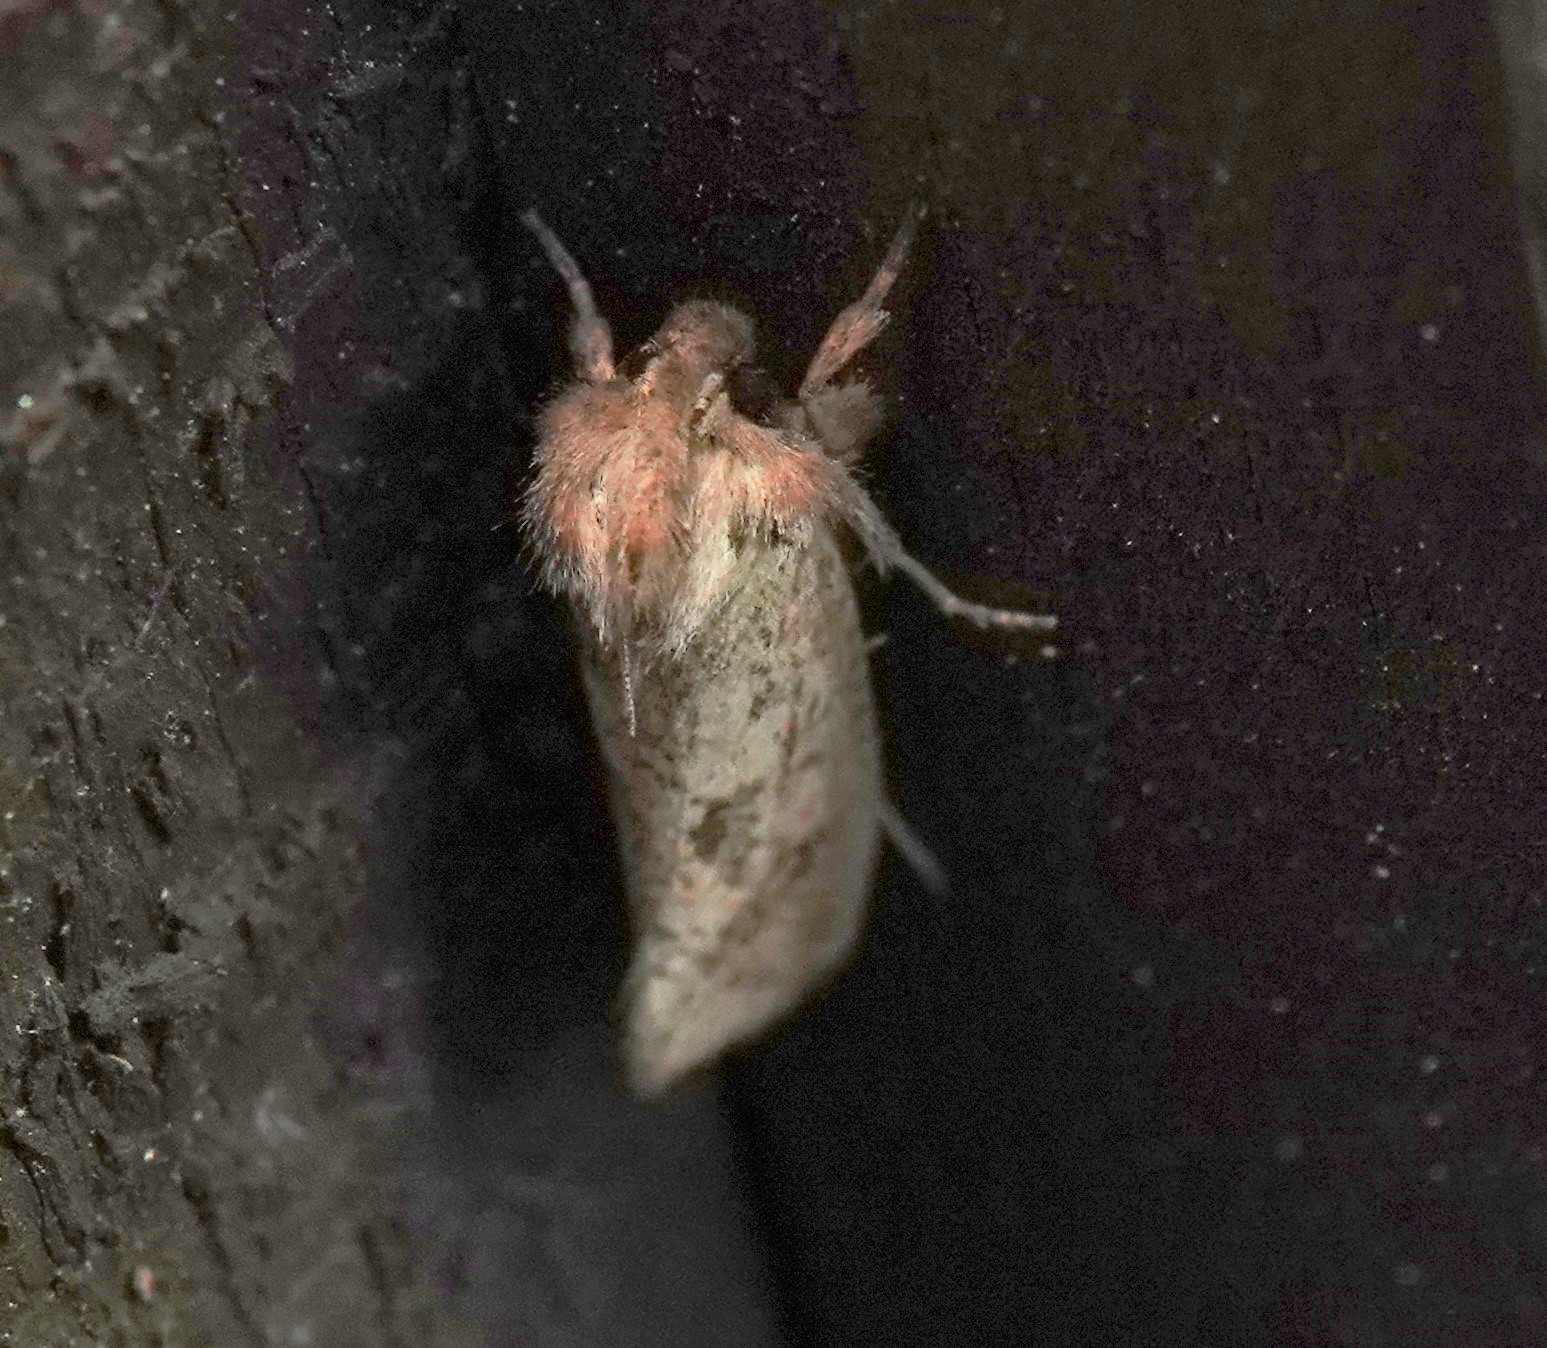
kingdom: Animalia
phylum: Arthropoda
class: Insecta
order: Lepidoptera
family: Tineidae
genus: Acrolophus
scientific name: Acrolophus plumifrontella
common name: Eastern grass tubeworm moth
